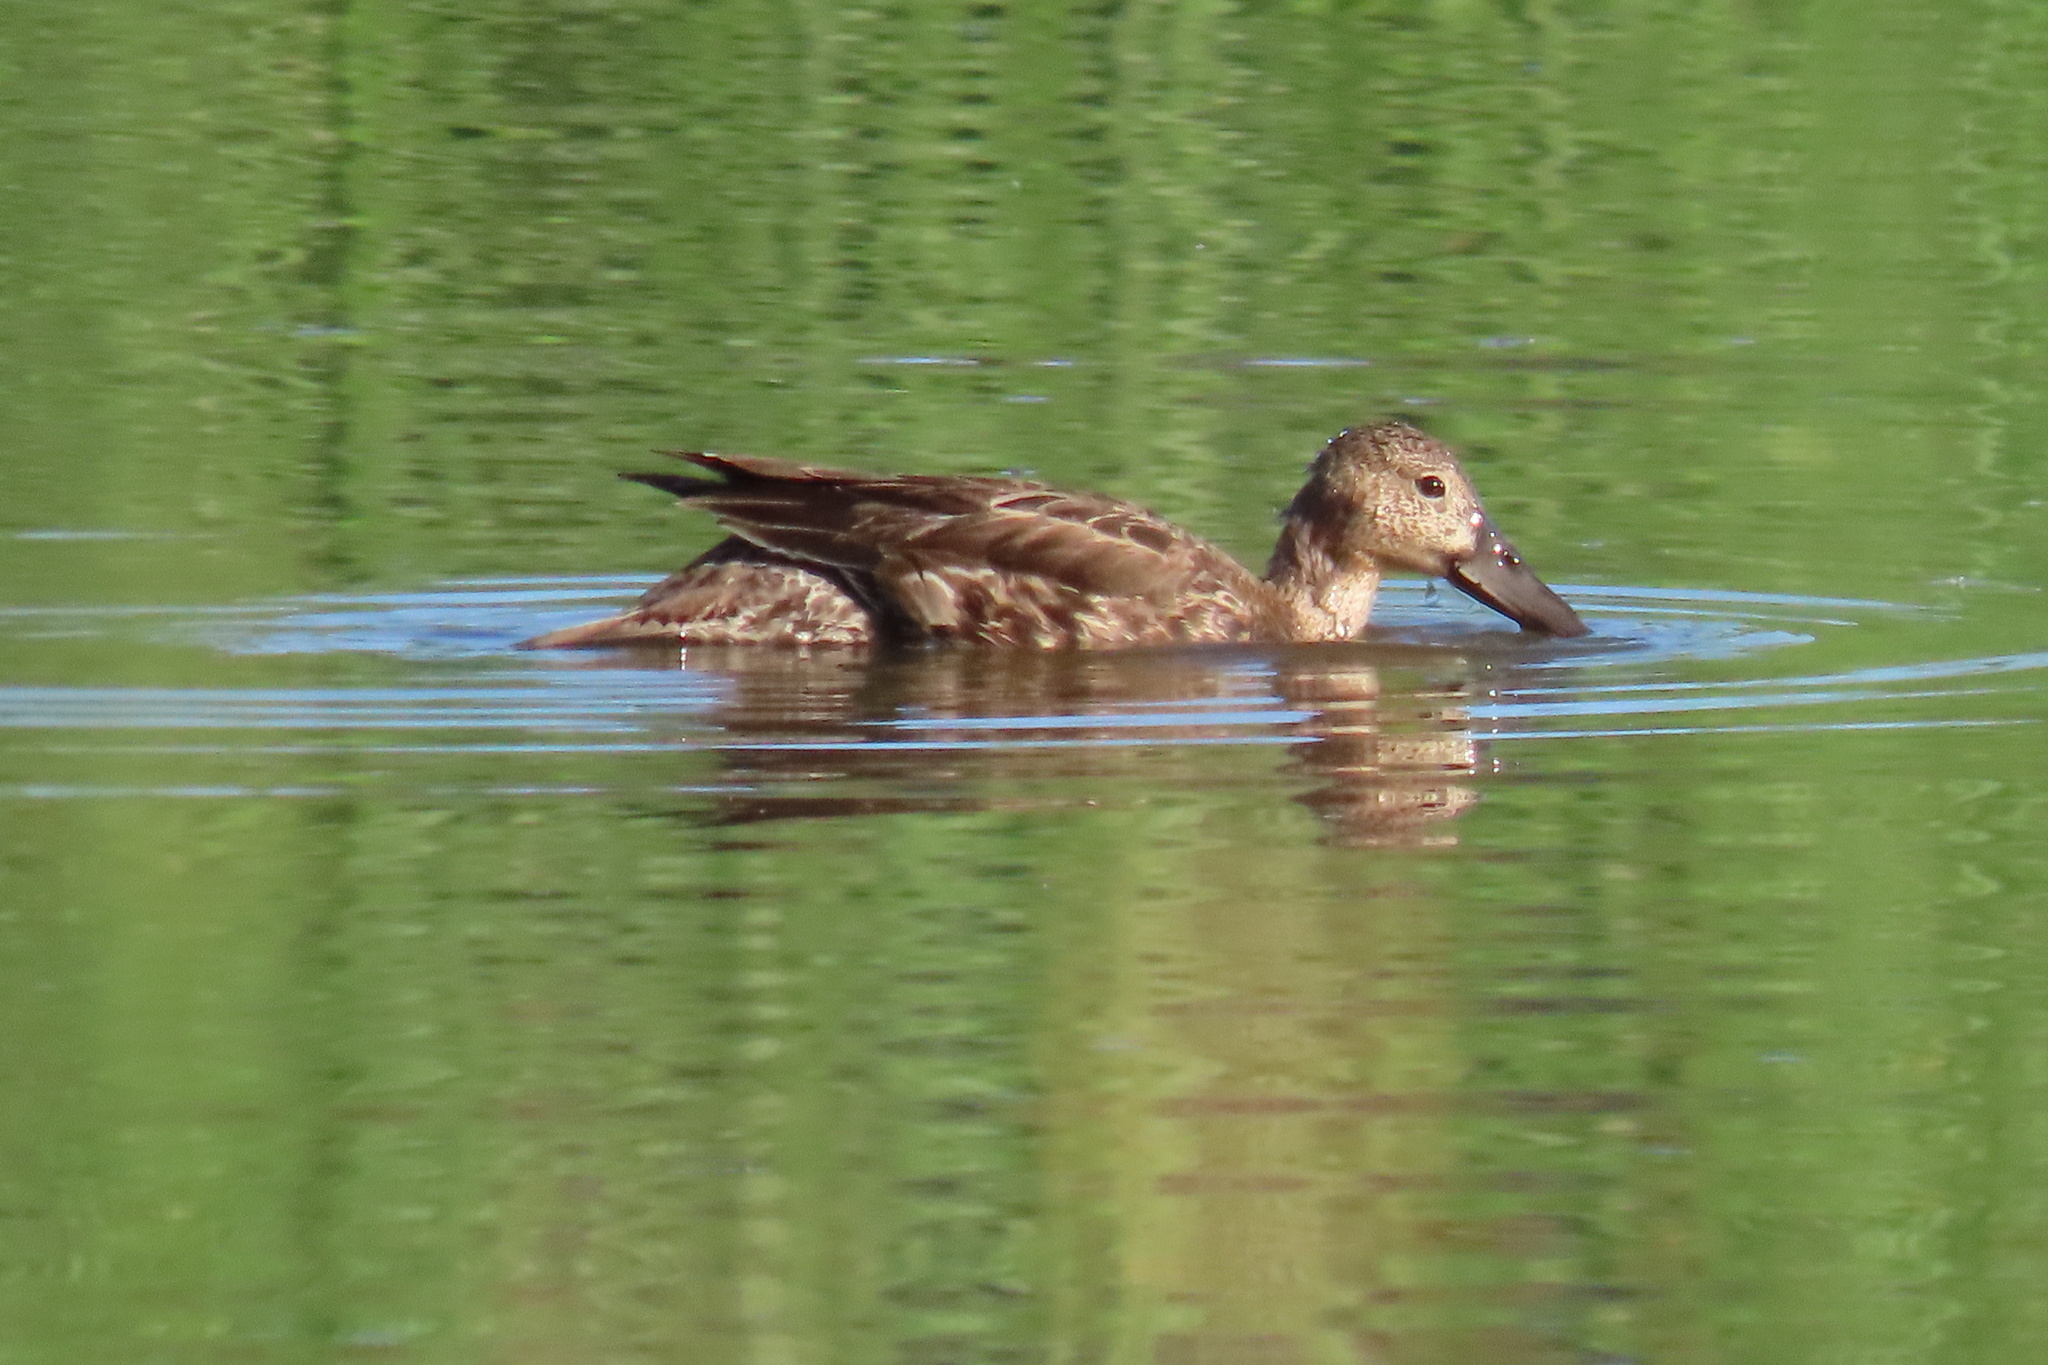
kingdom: Animalia
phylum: Chordata
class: Aves
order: Anseriformes
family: Anatidae
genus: Anas
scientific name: Anas crecca
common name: Eurasian teal
